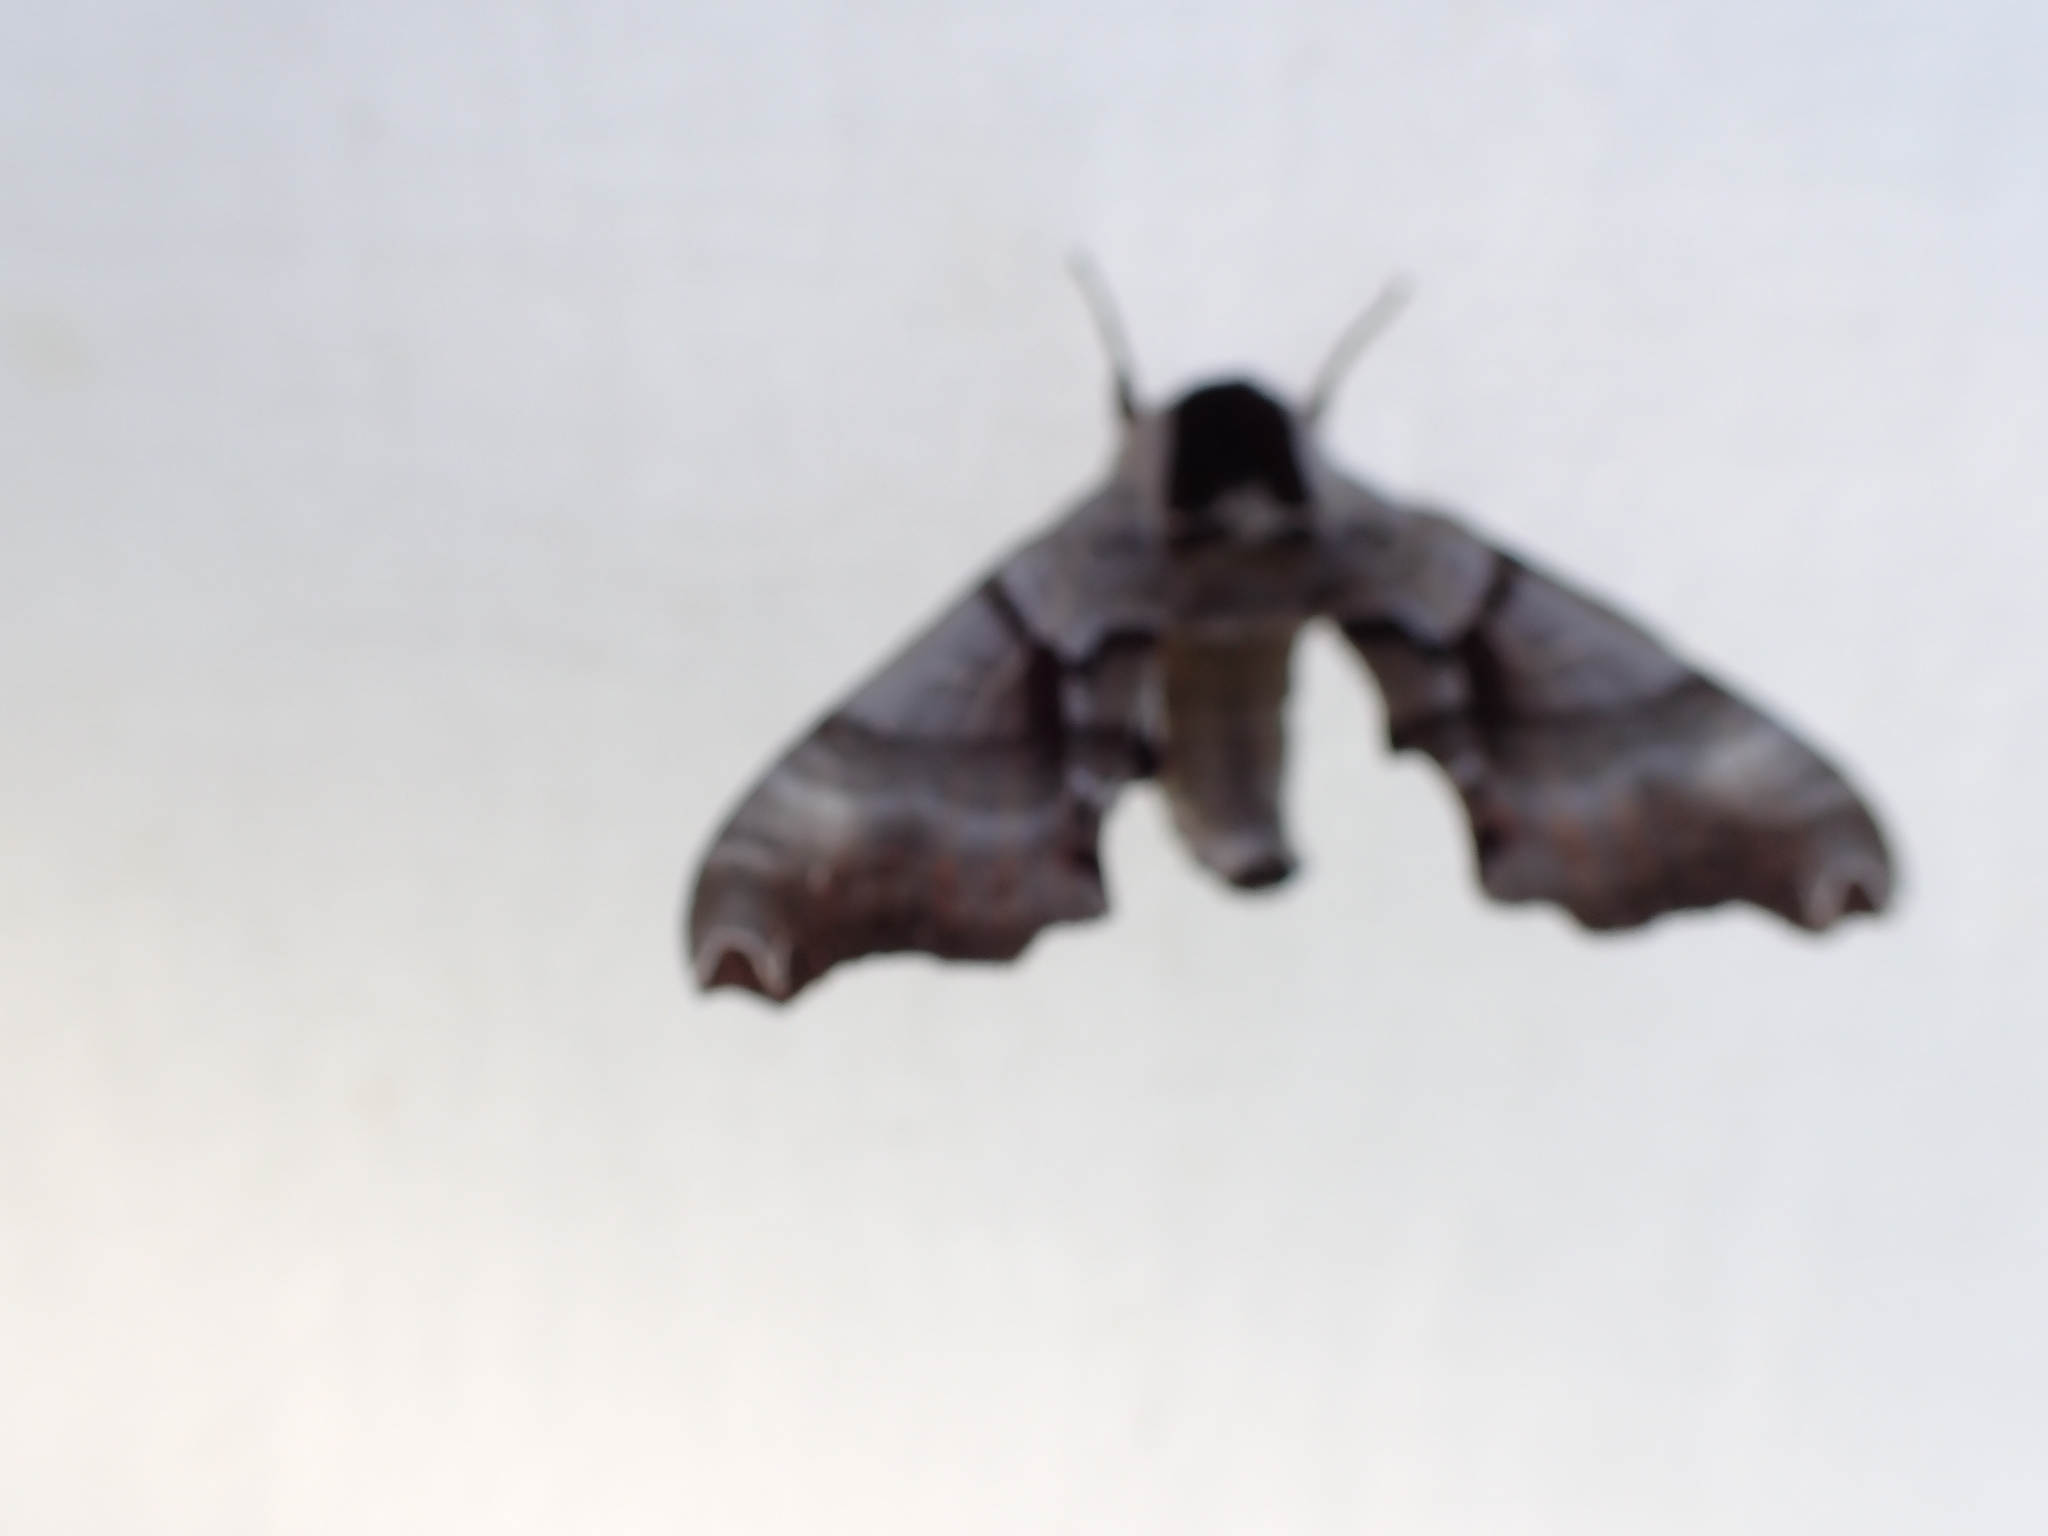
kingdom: Animalia
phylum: Arthropoda
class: Insecta
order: Lepidoptera
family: Sphingidae
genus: Smerinthus
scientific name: Smerinthus jamaicensis
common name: Twin spotted sphinx
